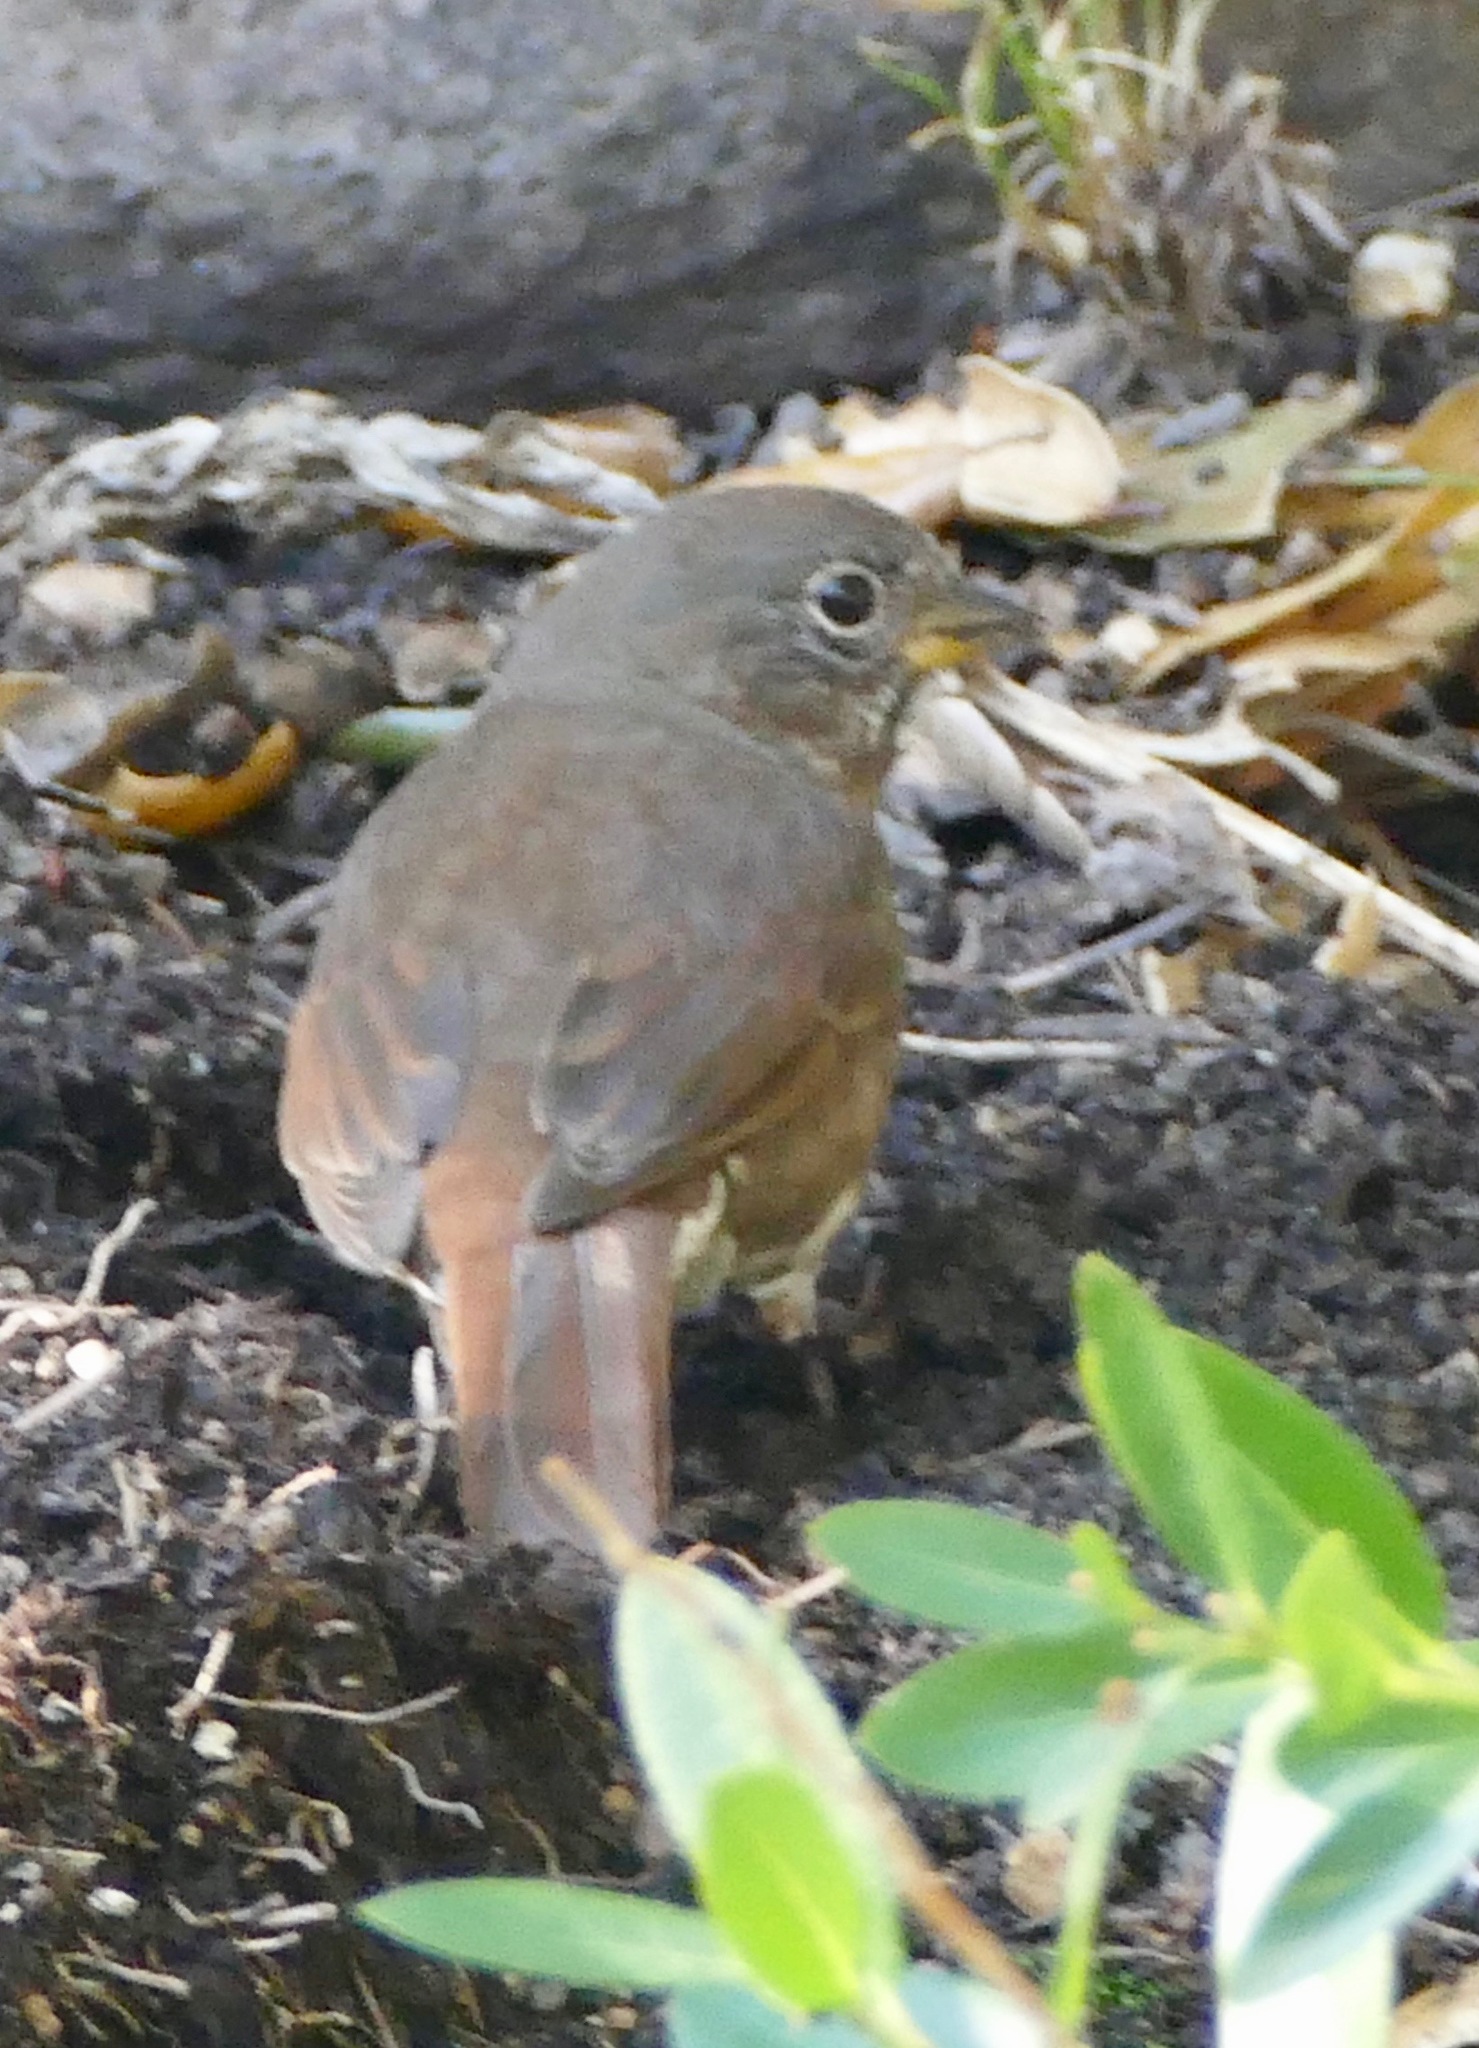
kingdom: Animalia
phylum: Chordata
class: Aves
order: Passeriformes
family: Passerellidae
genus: Passerella
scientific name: Passerella iliaca
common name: Fox sparrow
